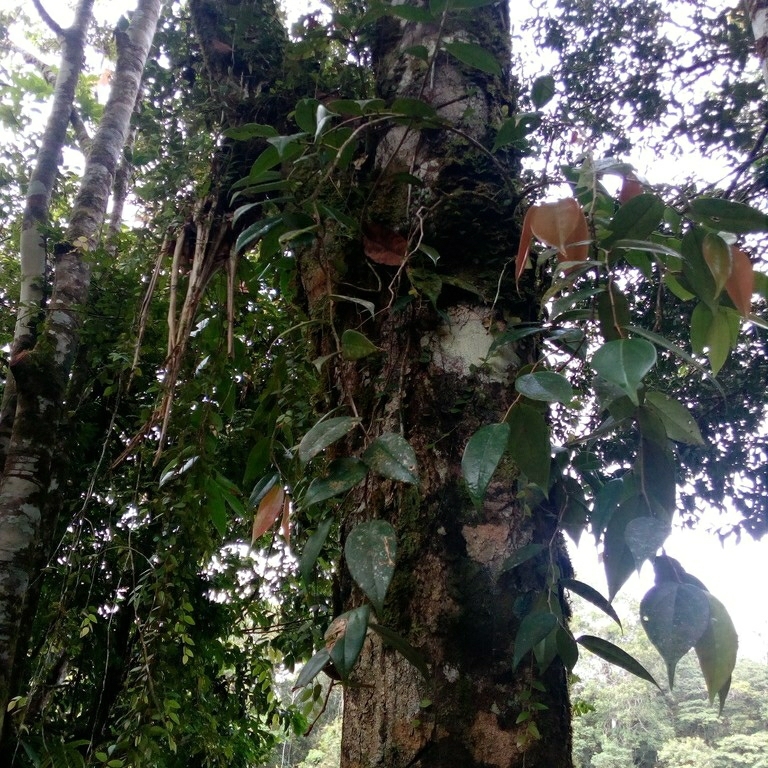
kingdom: Plantae
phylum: Tracheophyta
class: Magnoliopsida
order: Ericales
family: Ericaceae
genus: Satyria
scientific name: Satyria cerander
